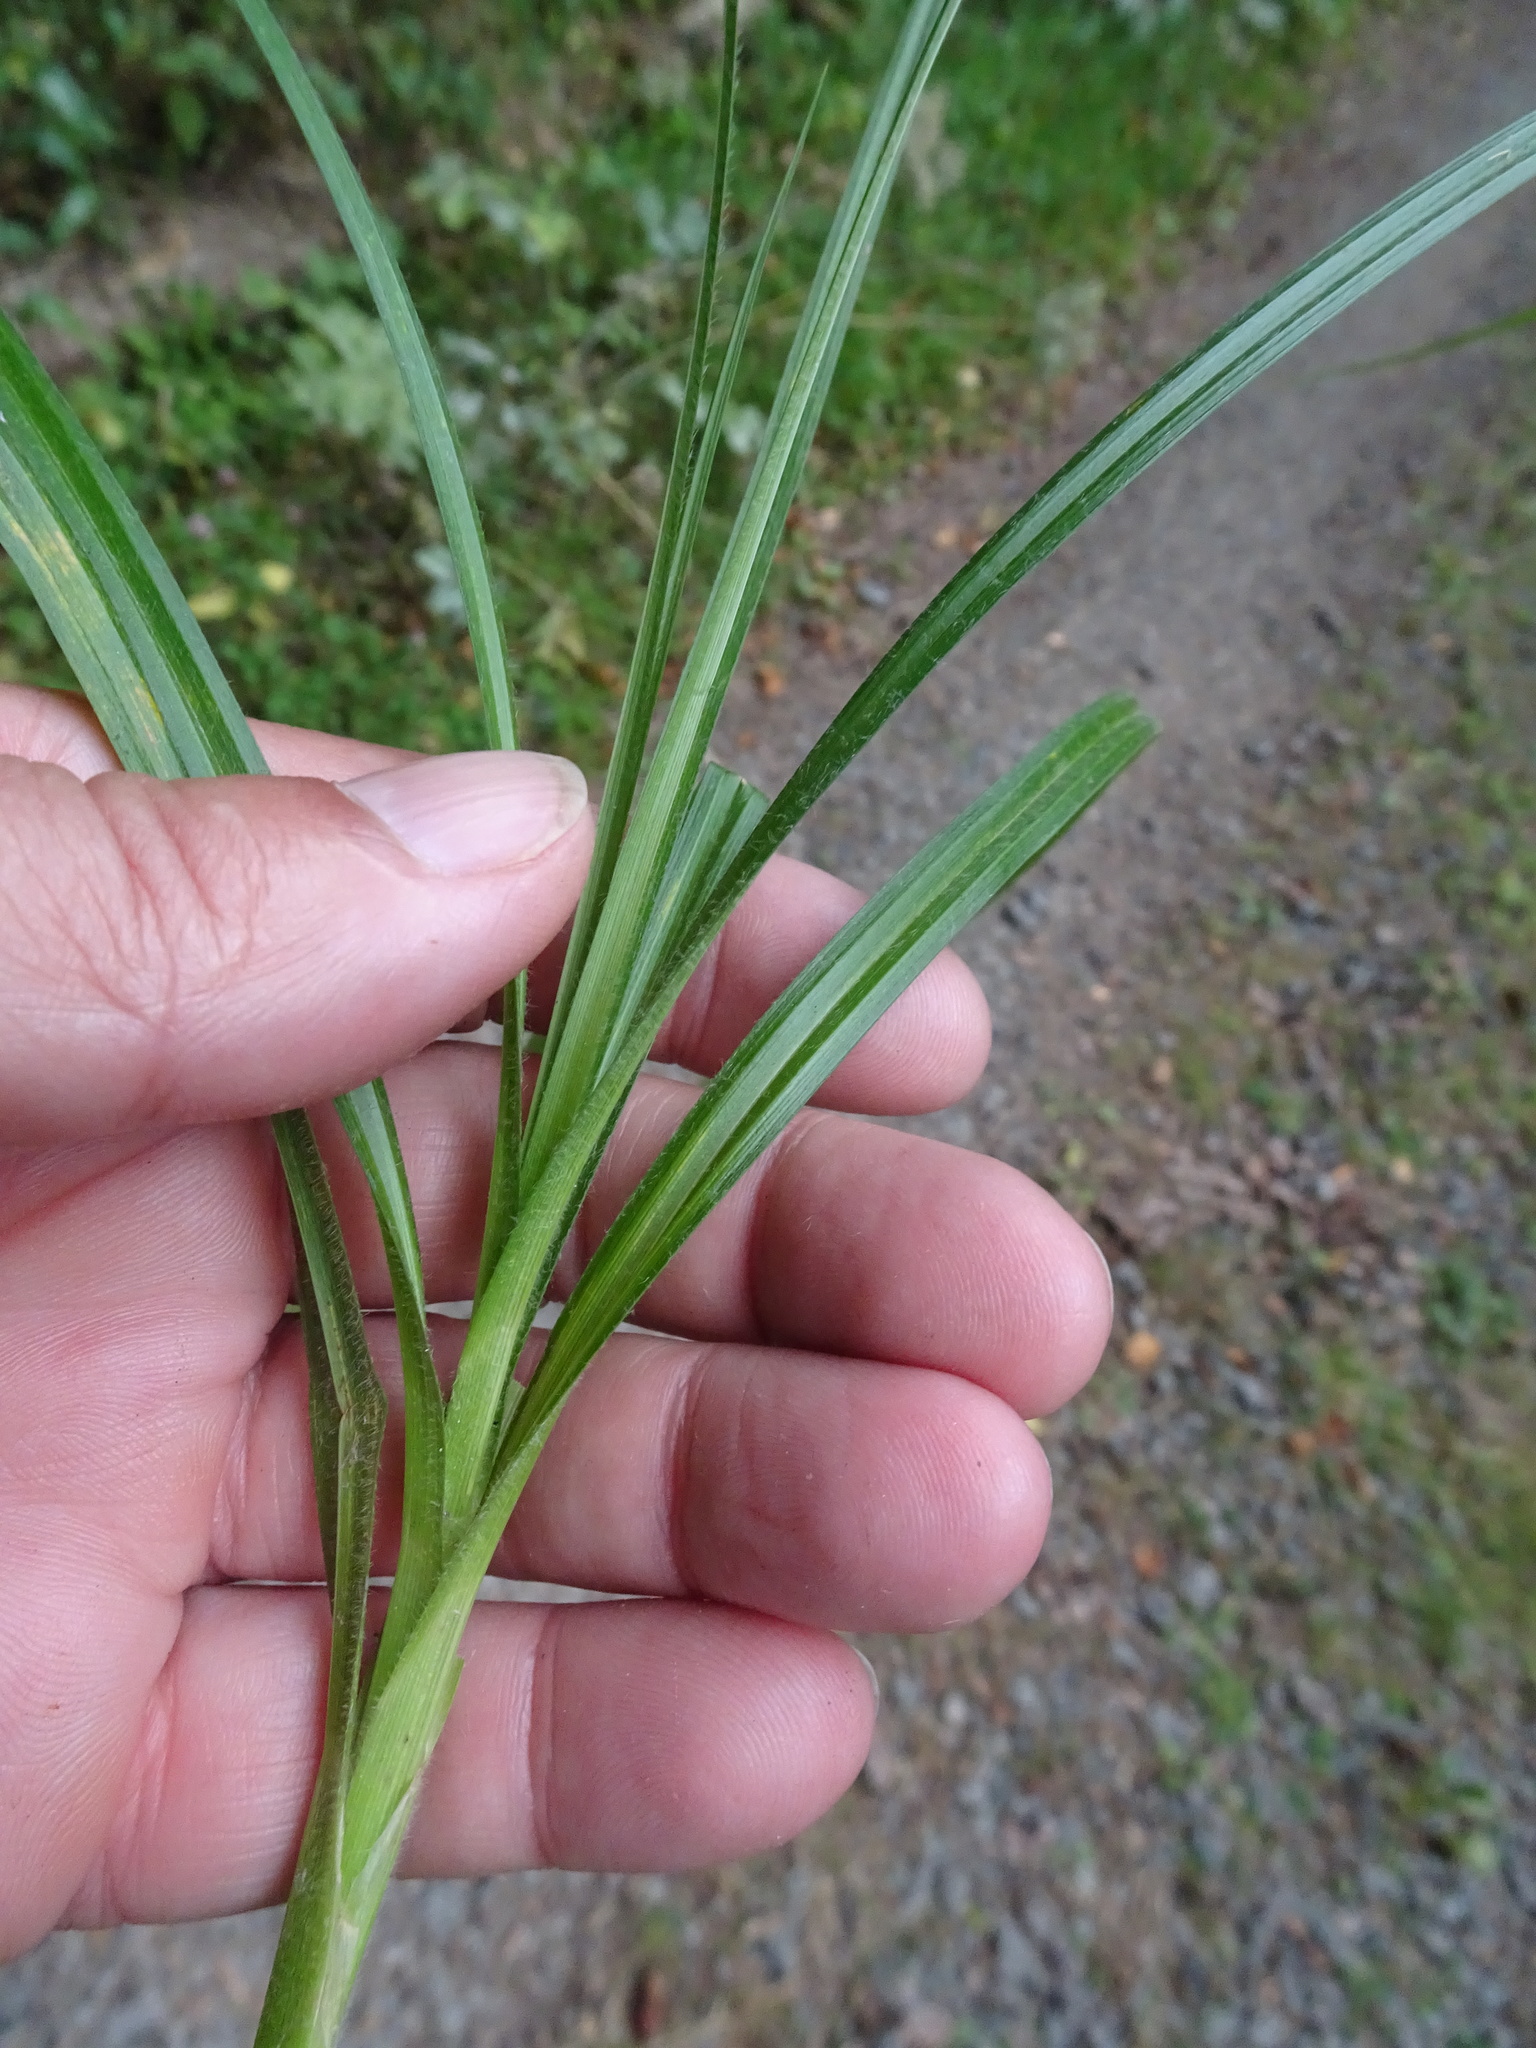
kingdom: Plantae
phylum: Tracheophyta
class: Liliopsida
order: Poales
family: Cyperaceae
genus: Carex
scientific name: Carex hirta
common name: Hairy sedge
